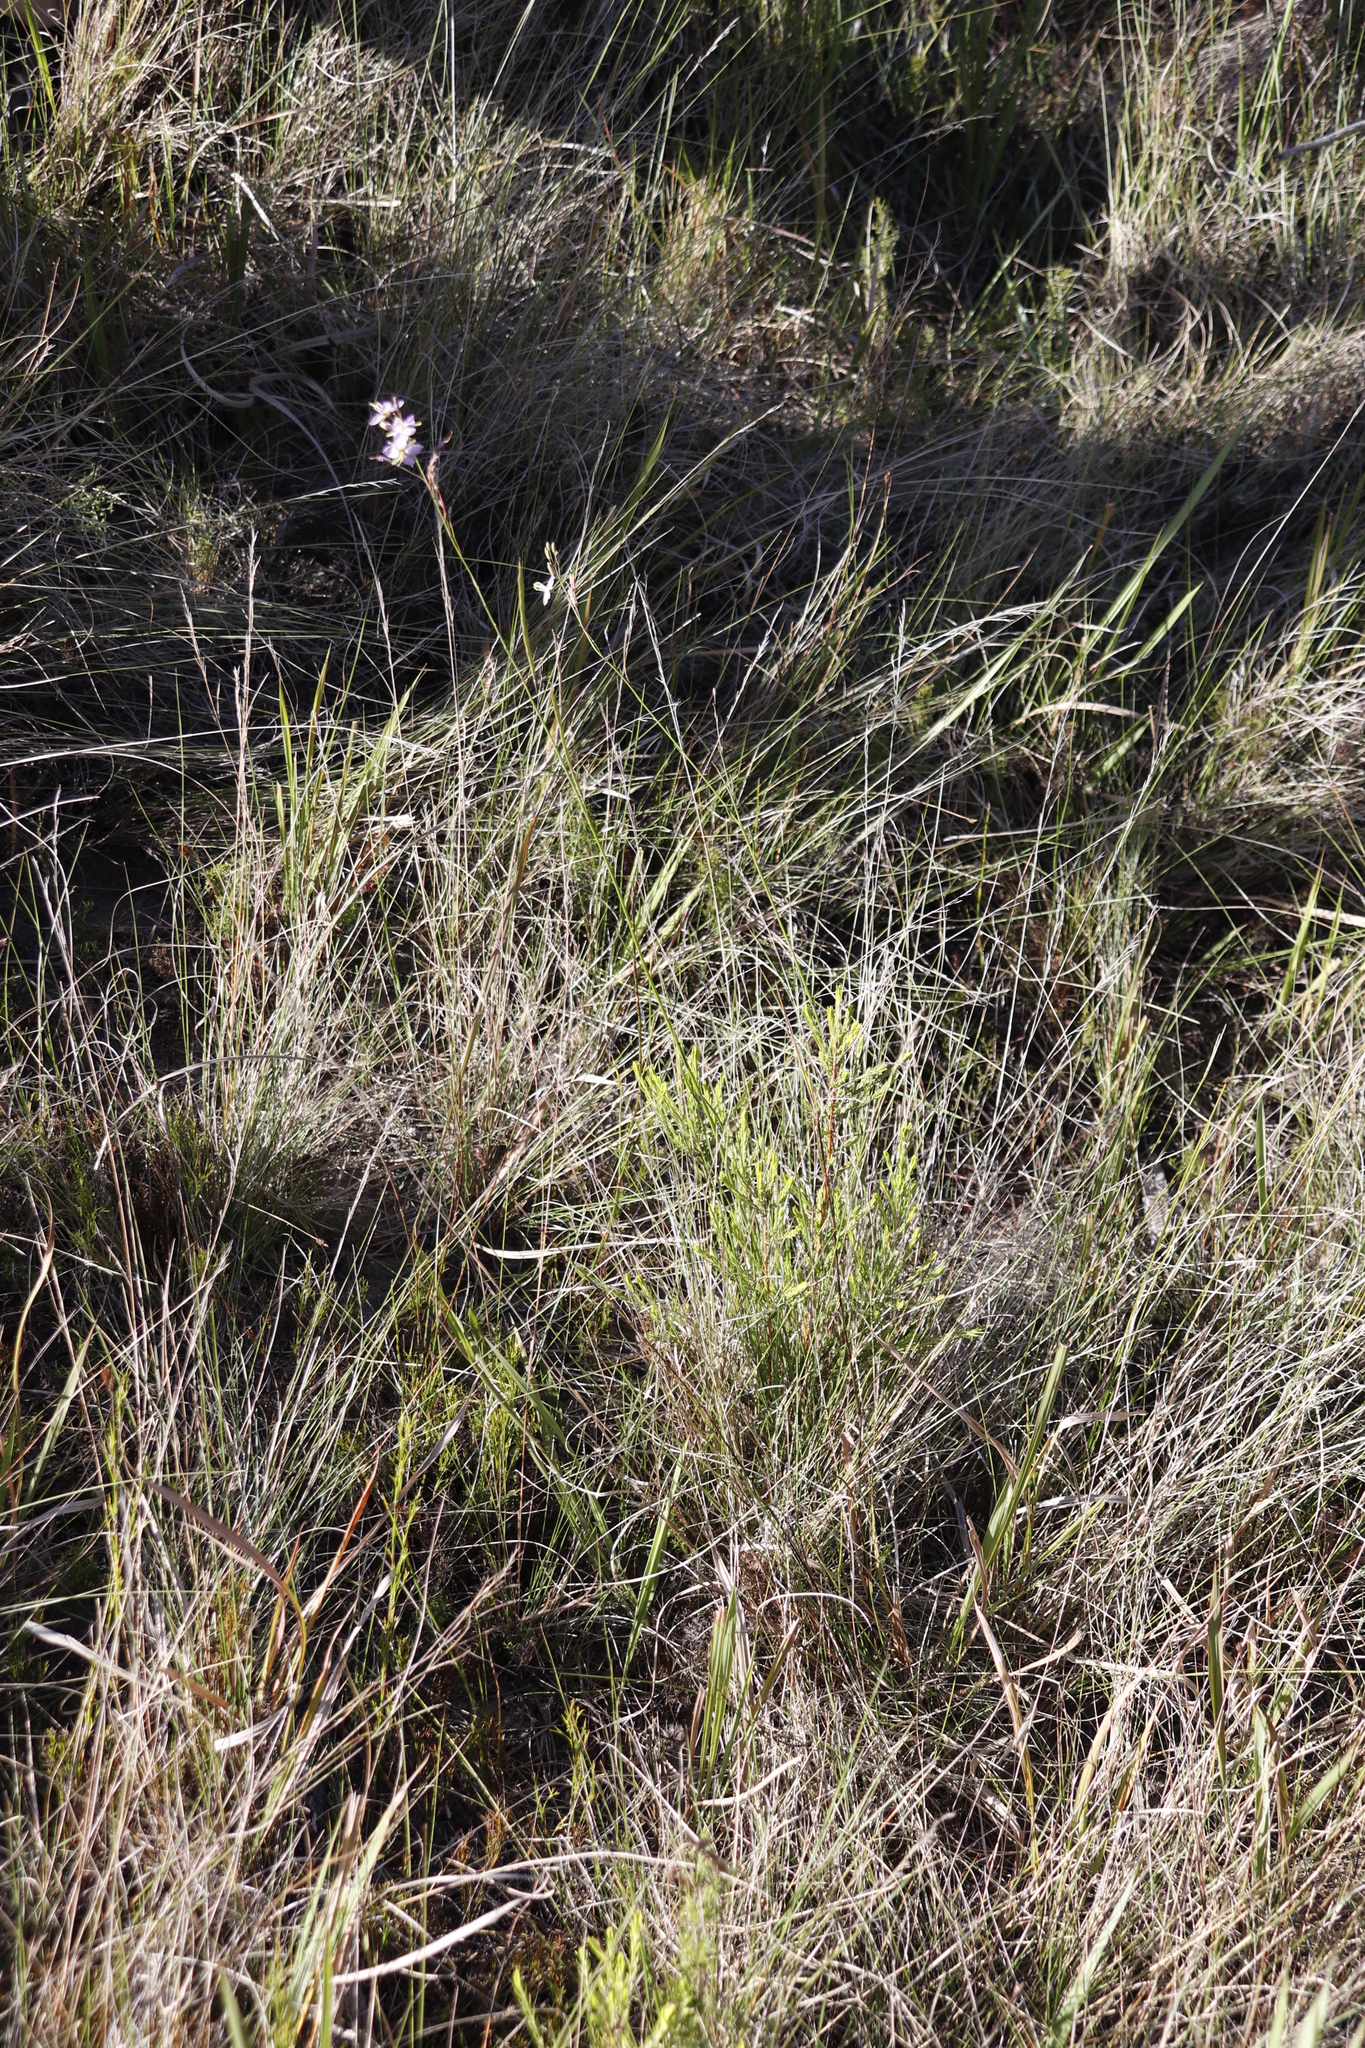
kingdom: Plantae
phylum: Tracheophyta
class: Magnoliopsida
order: Brassicales
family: Brassicaceae
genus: Heliophila
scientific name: Heliophila subulata
